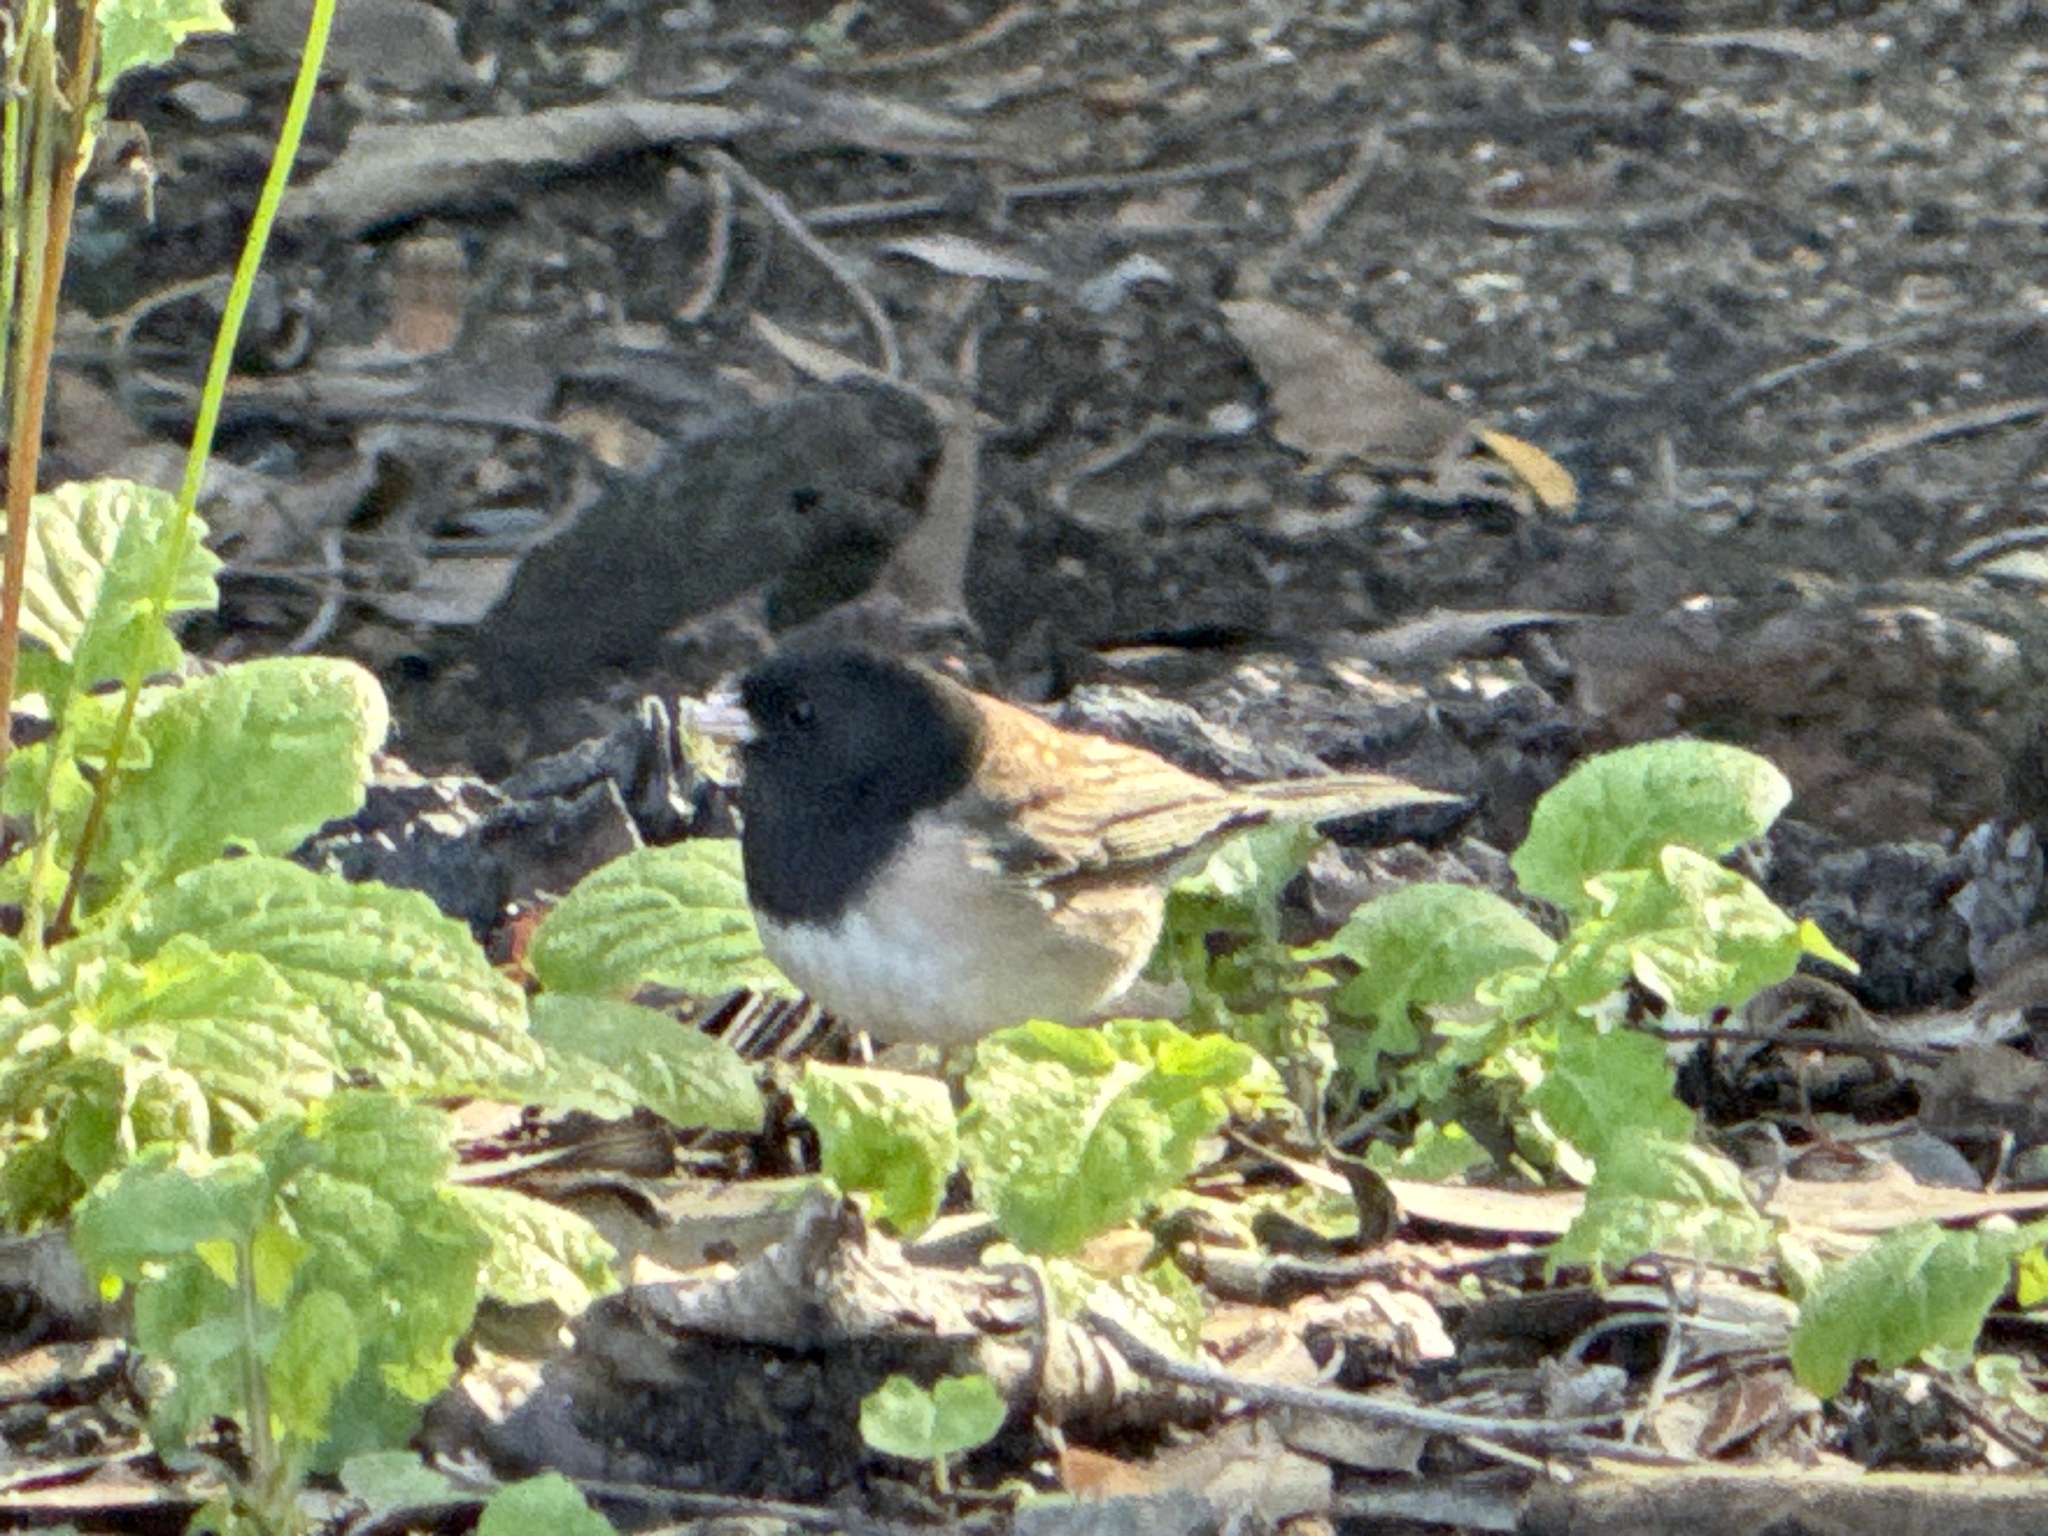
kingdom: Animalia
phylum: Chordata
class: Aves
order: Passeriformes
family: Passerellidae
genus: Junco
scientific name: Junco hyemalis
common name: Dark-eyed junco
